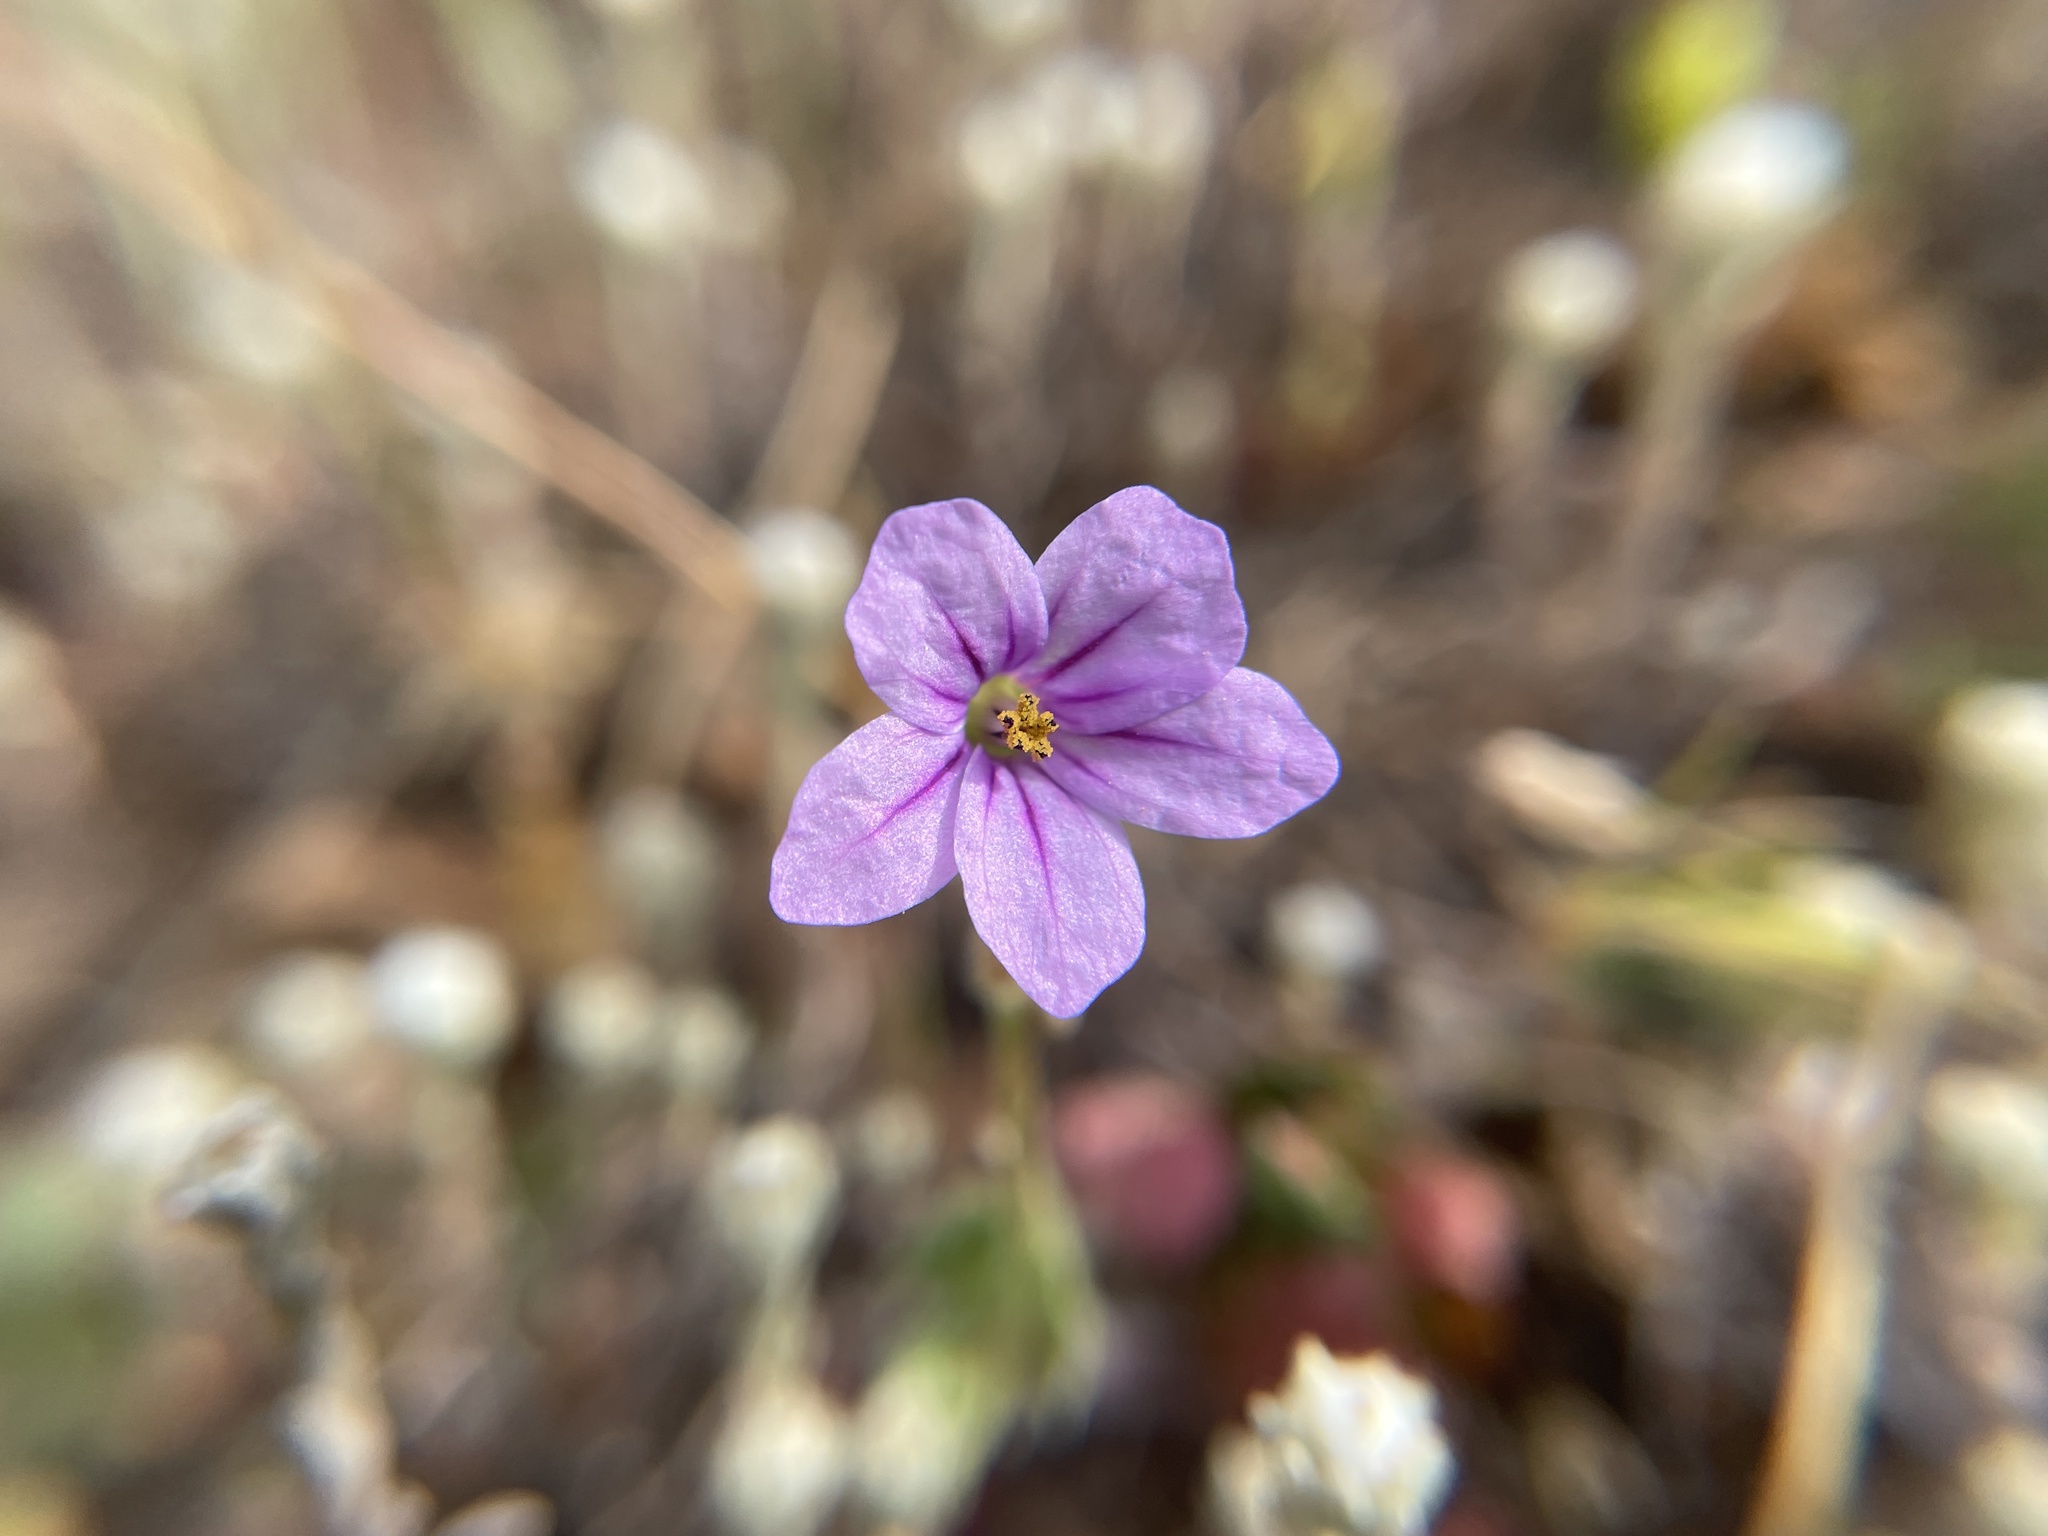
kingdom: Plantae
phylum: Tracheophyta
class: Magnoliopsida
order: Geraniales
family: Geraniaceae
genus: Erodium
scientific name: Erodium botrys
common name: Mediterranean stork's-bill
